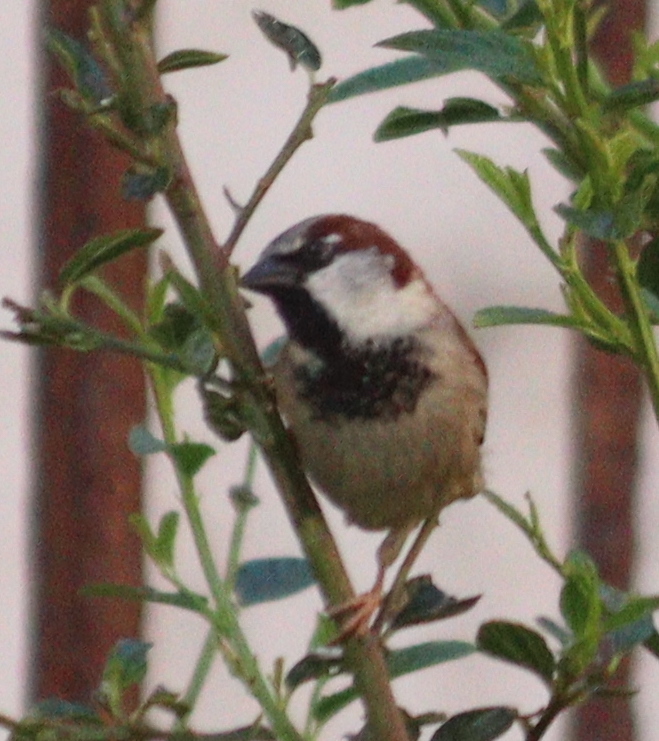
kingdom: Animalia
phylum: Chordata
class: Aves
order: Passeriformes
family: Passeridae
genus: Passer
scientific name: Passer domesticus
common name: House sparrow
